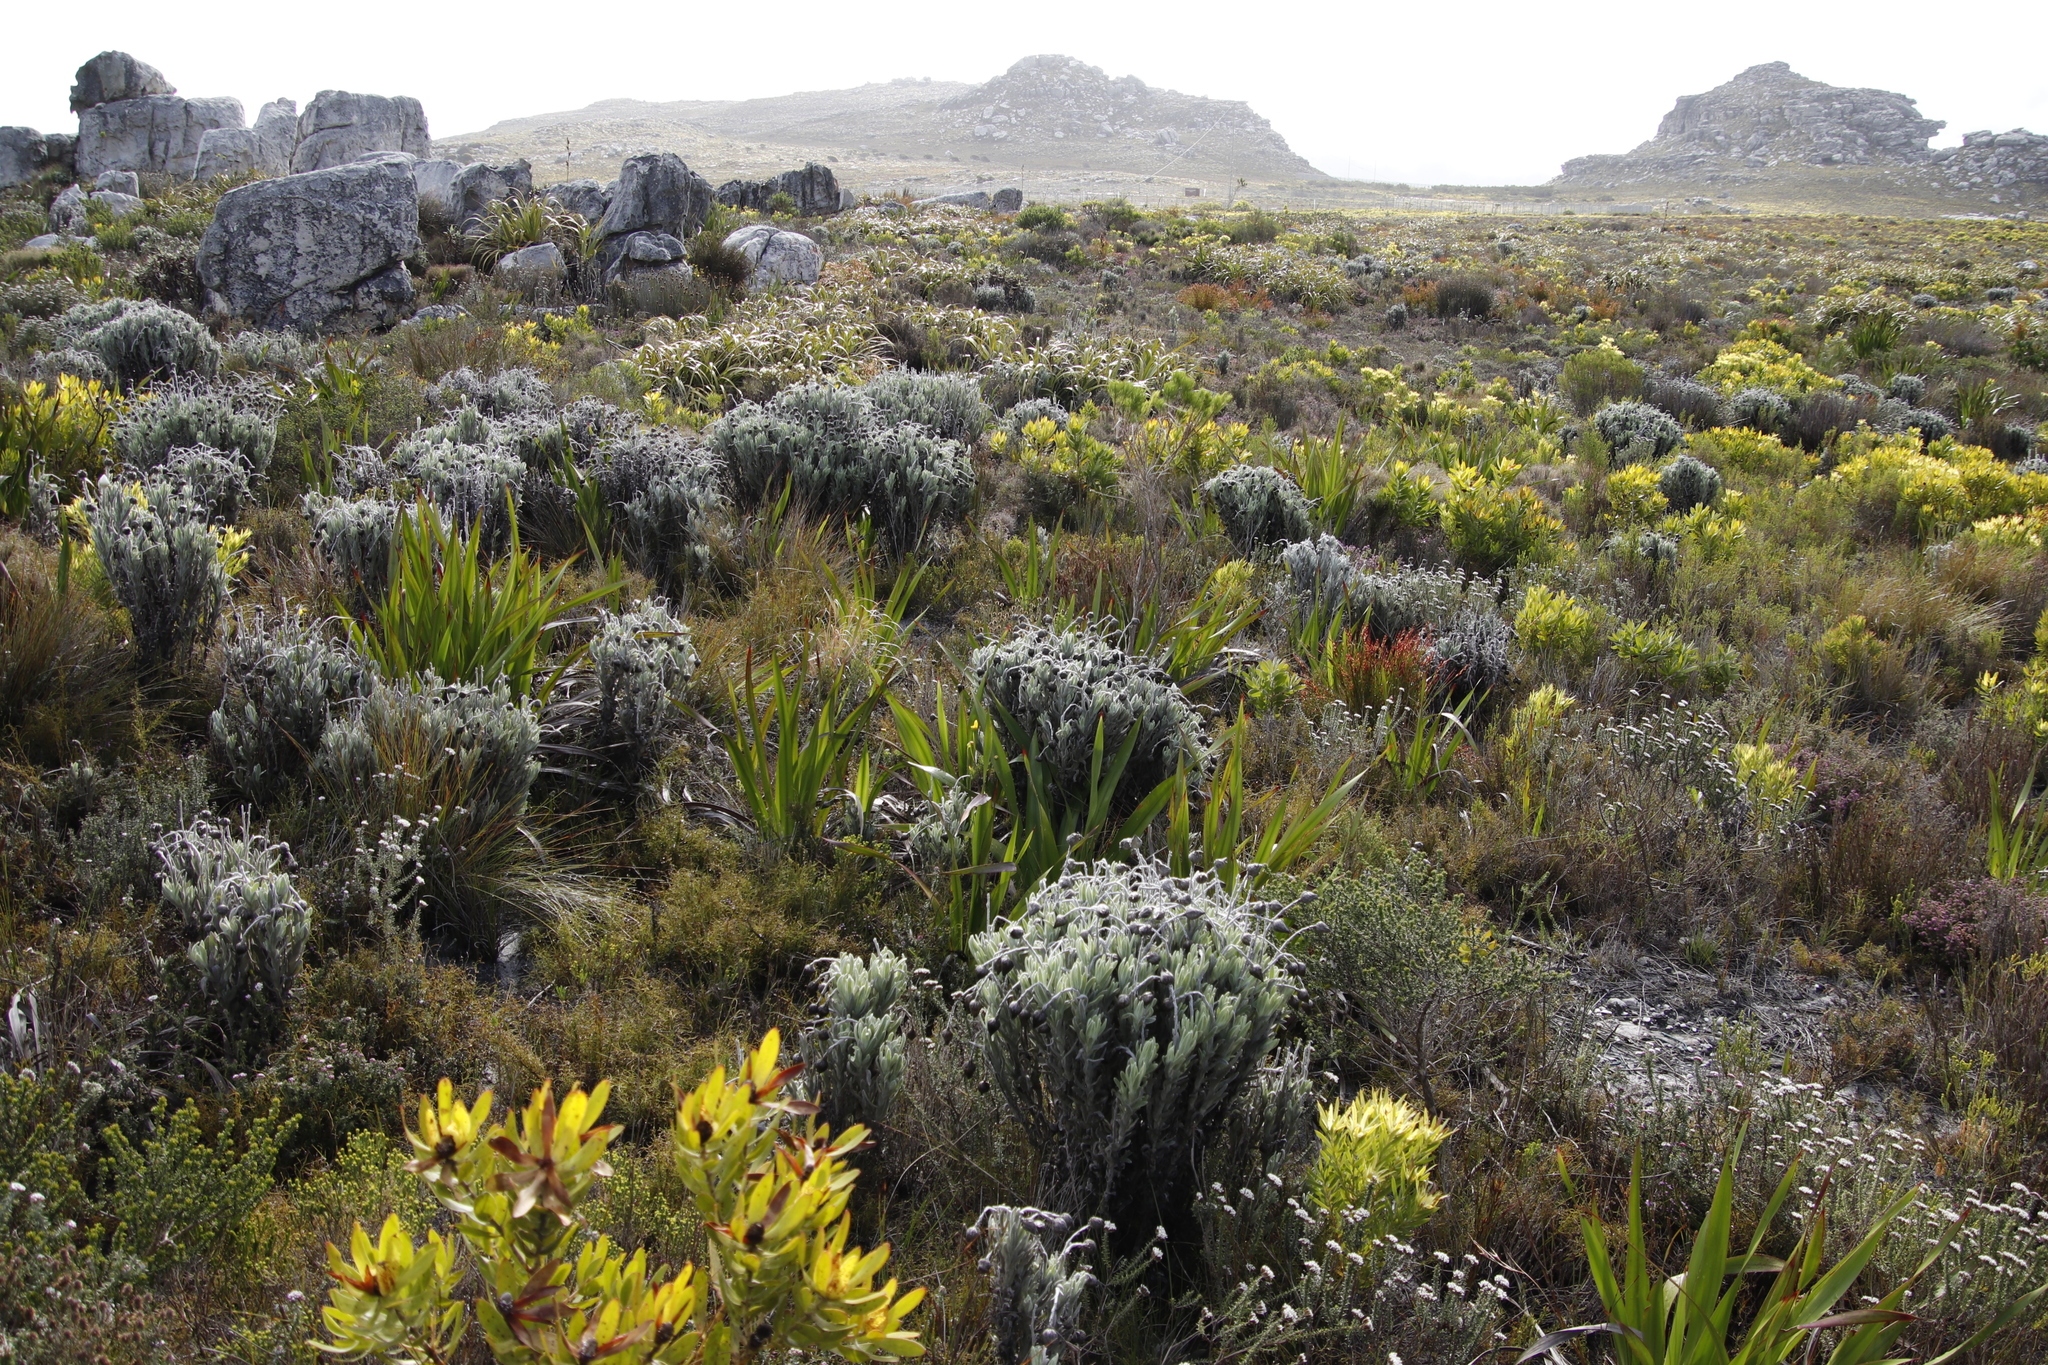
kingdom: Plantae
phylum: Tracheophyta
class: Magnoliopsida
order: Asterales
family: Asteraceae
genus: Syncarpha
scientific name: Syncarpha vestita
